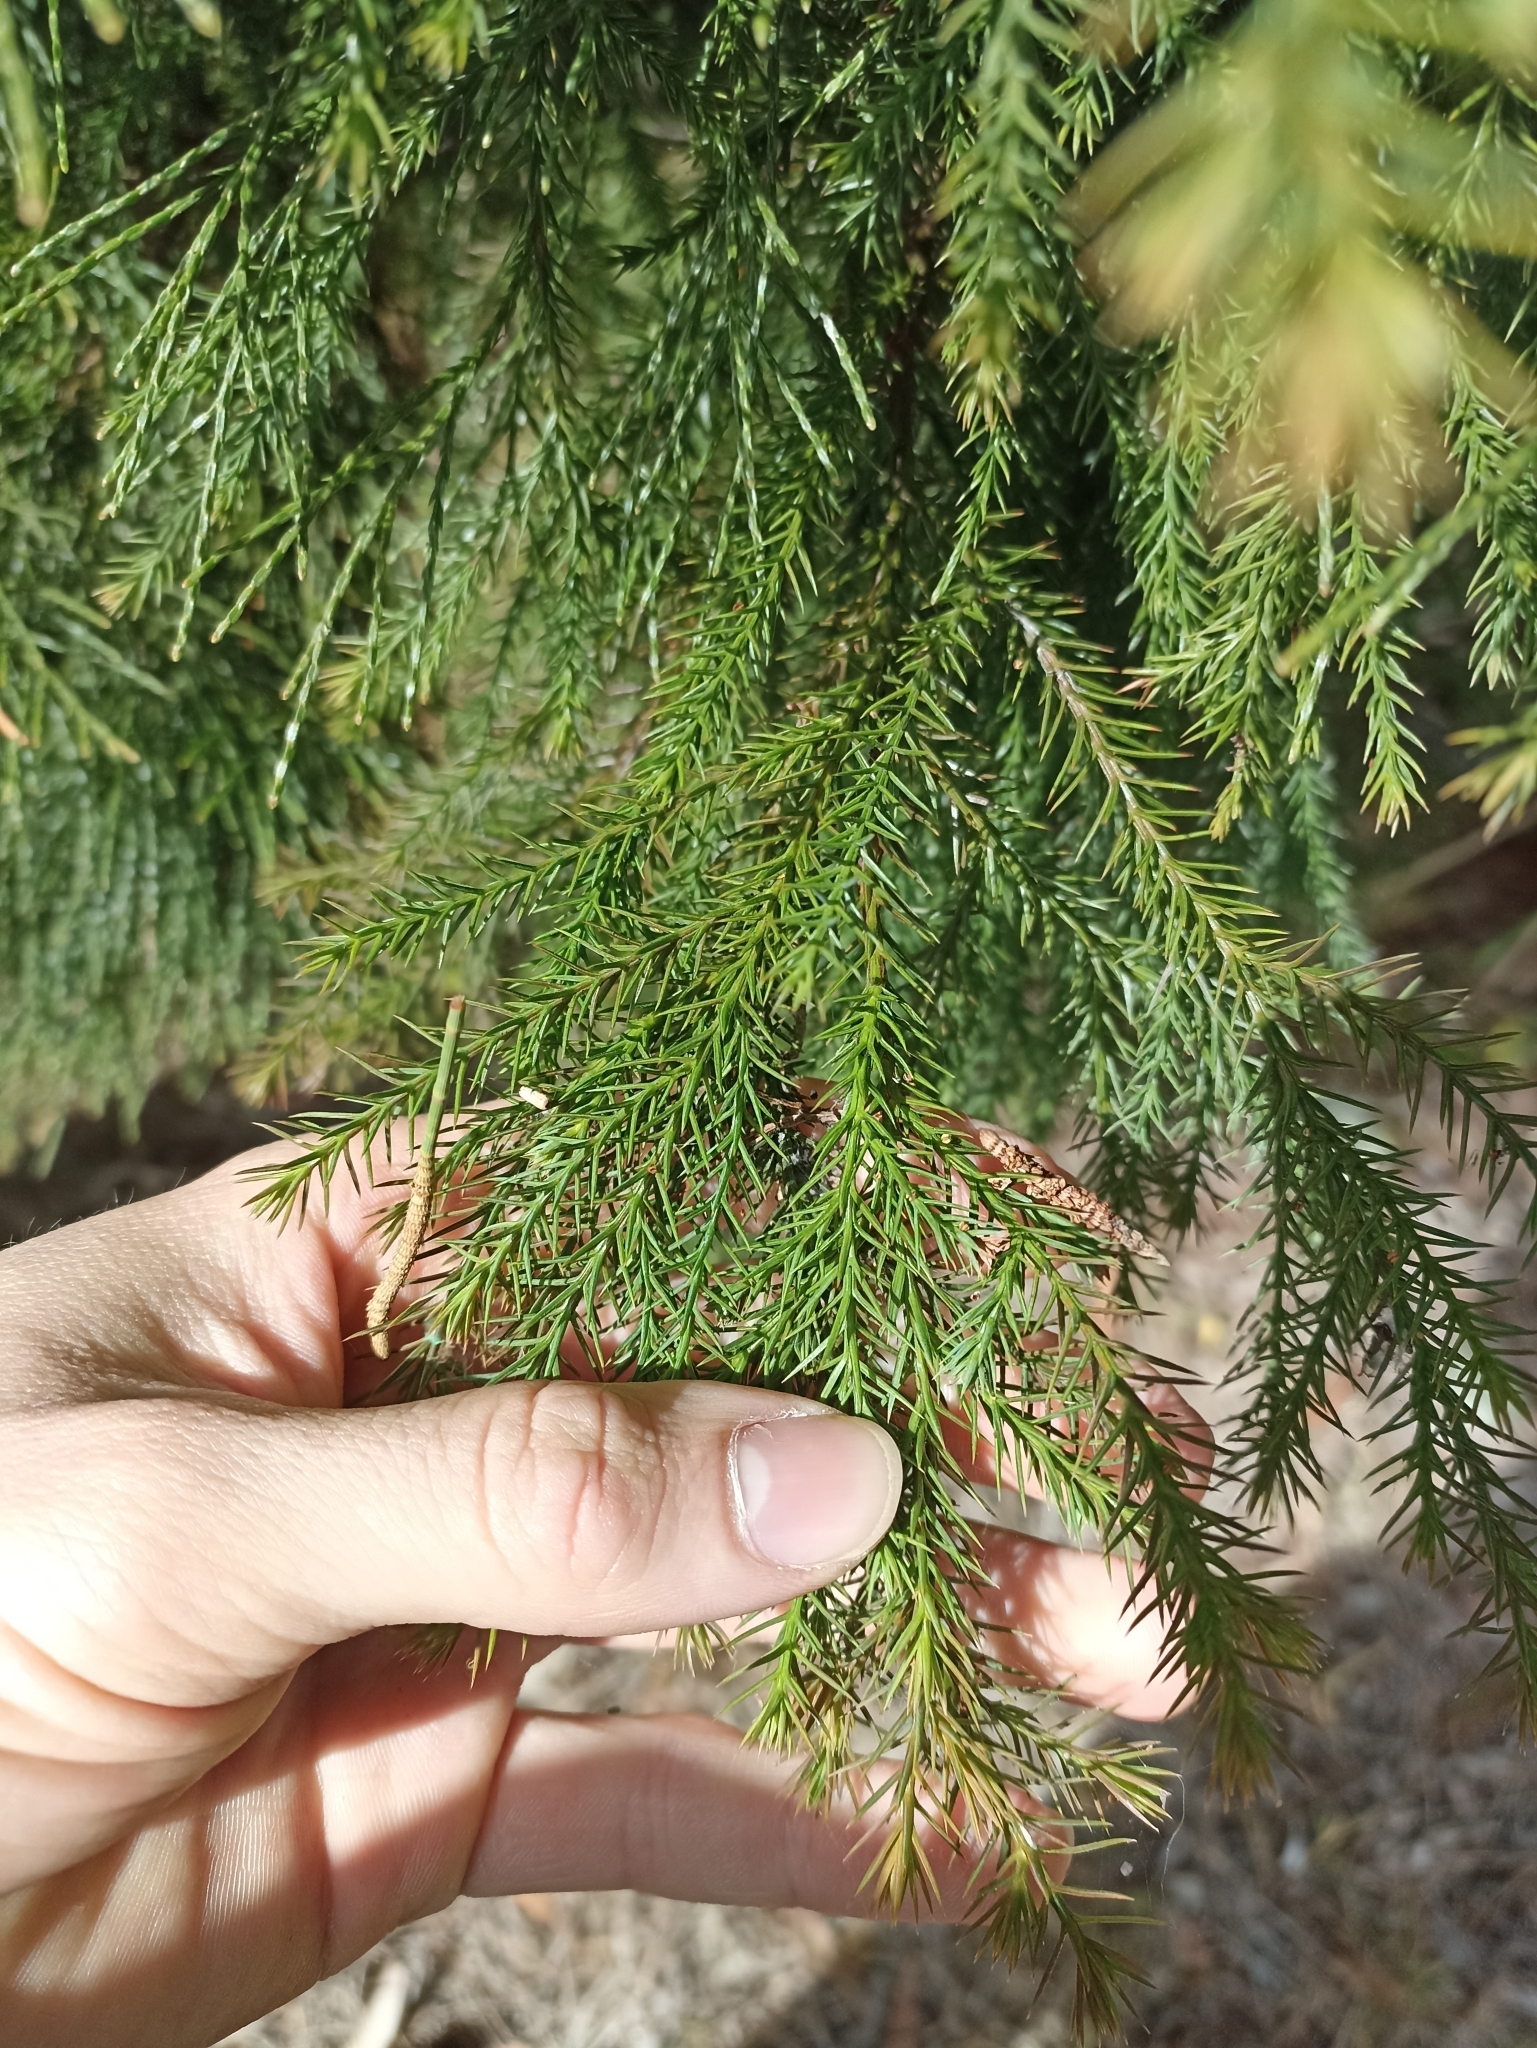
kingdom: Plantae
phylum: Tracheophyta
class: Pinopsida
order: Pinales
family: Cupressaceae
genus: Callitris
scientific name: Callitris macleayana
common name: Brush cypress pine
